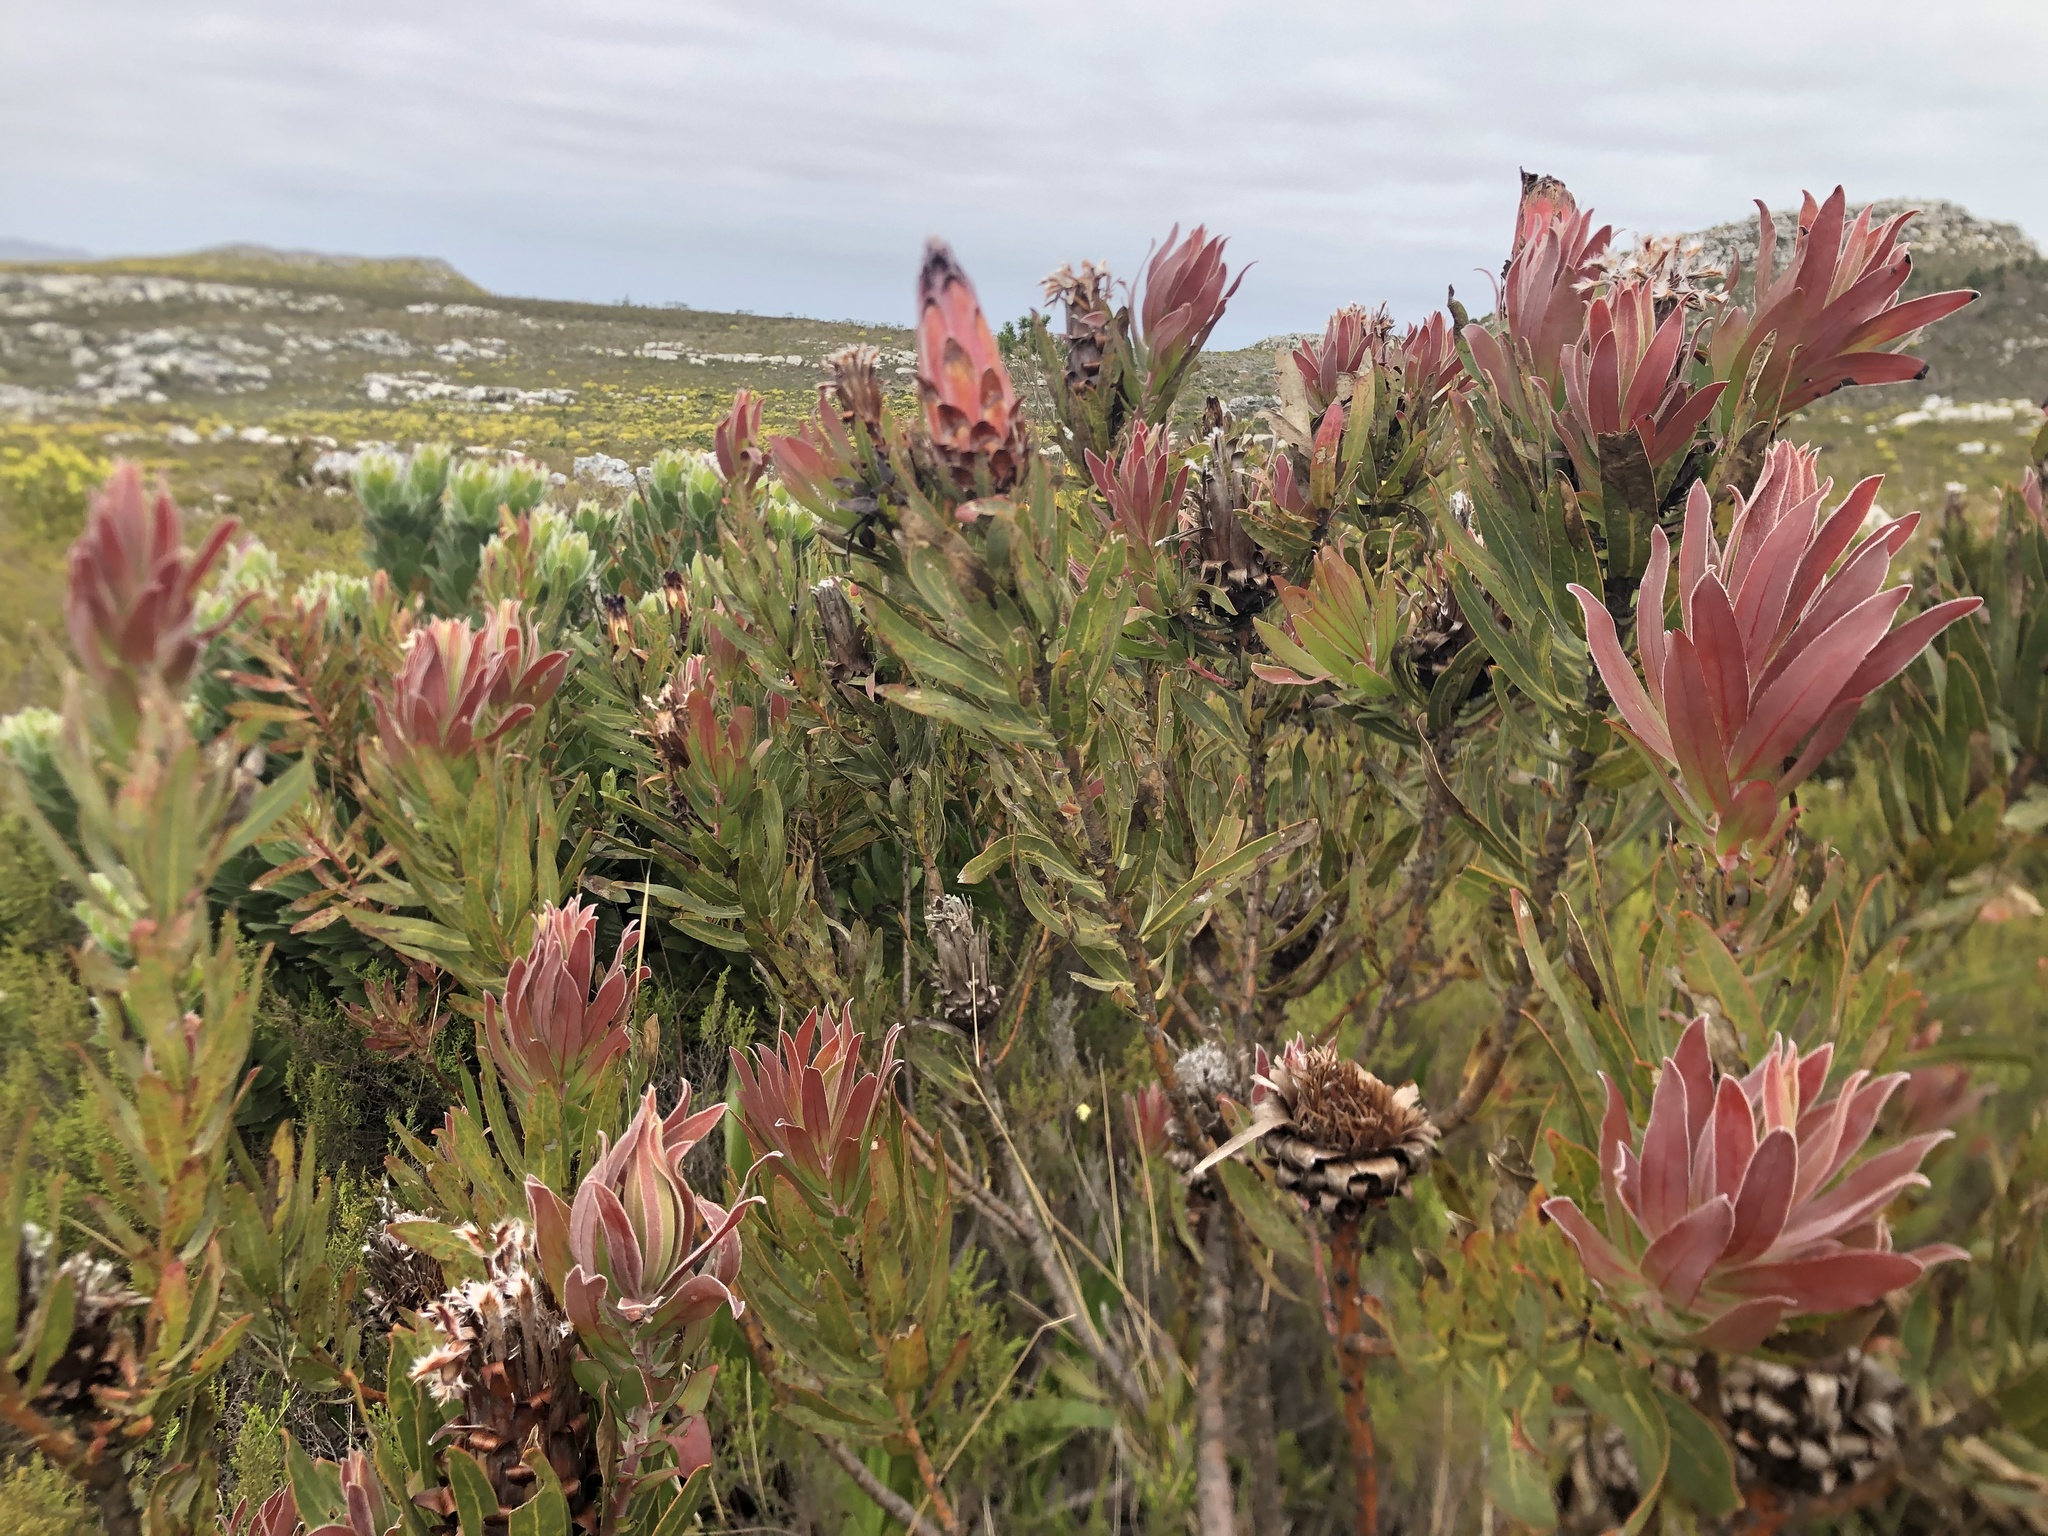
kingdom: Plantae
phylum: Tracheophyta
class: Magnoliopsida
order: Proteales
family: Proteaceae
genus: Protea
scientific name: Protea
